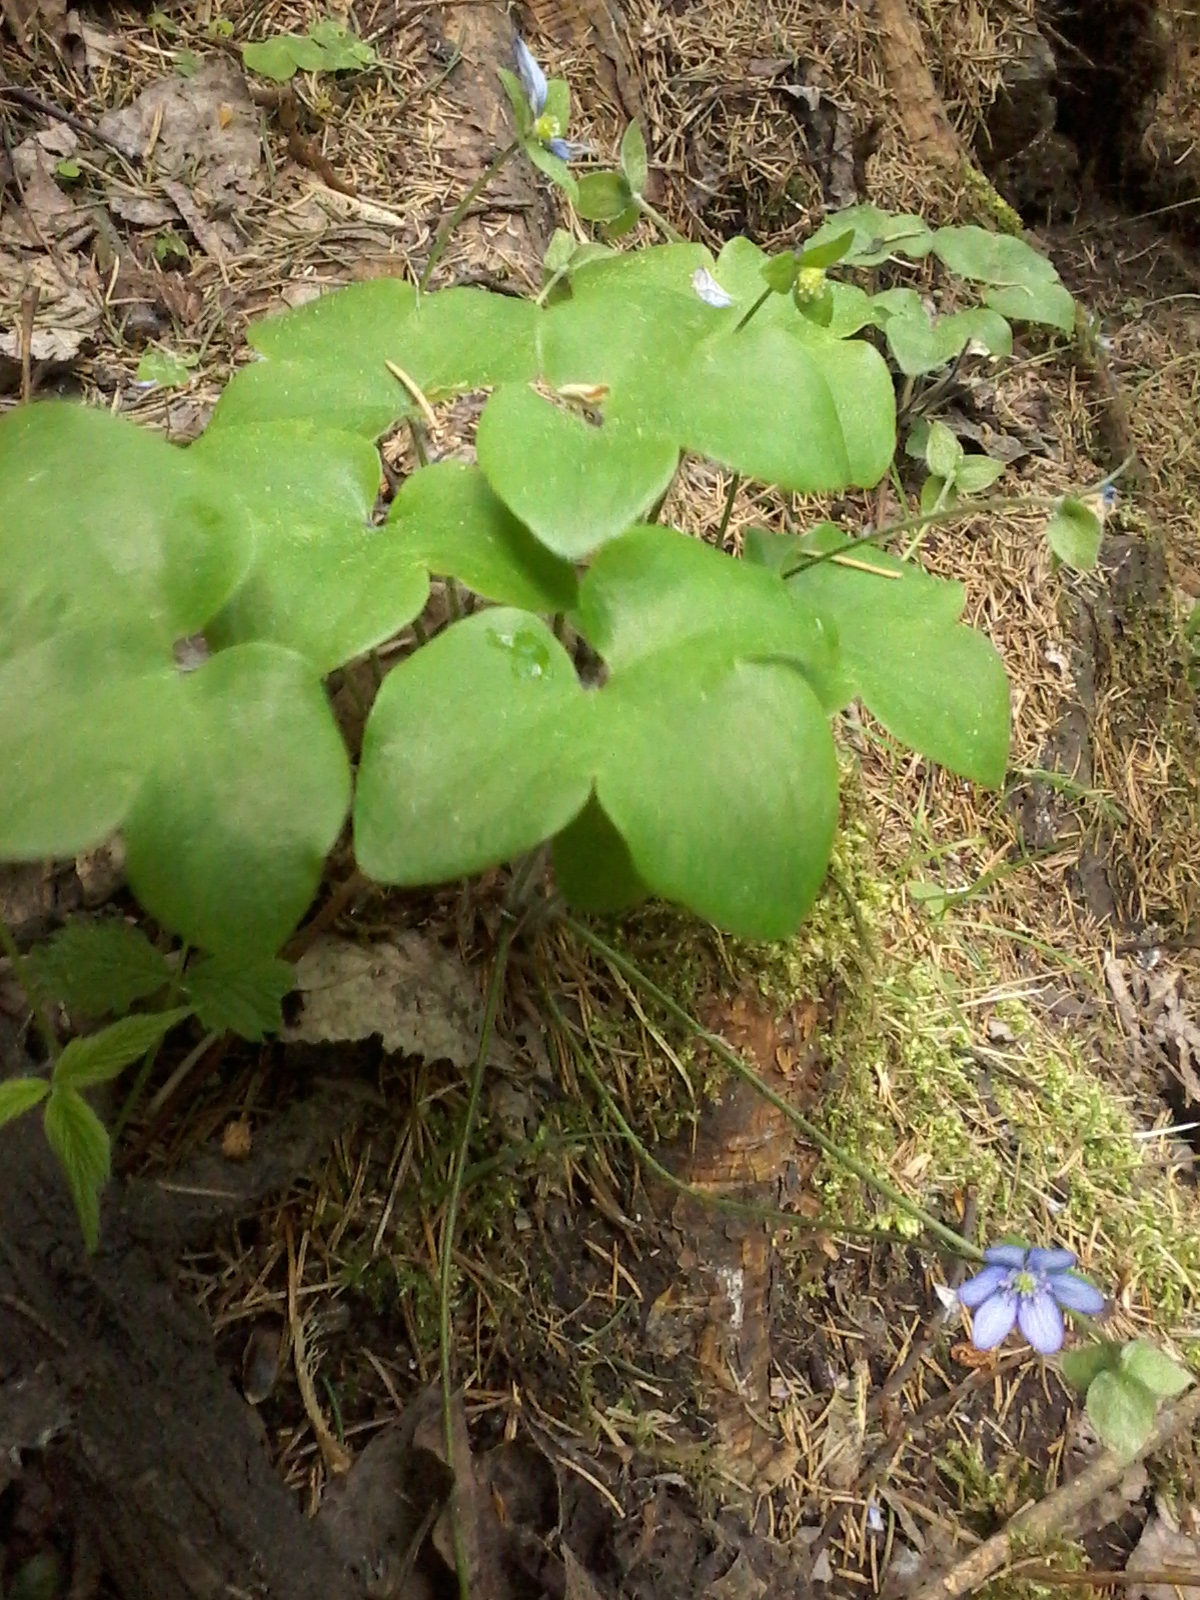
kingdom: Plantae
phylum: Tracheophyta
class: Magnoliopsida
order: Ranunculales
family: Ranunculaceae
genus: Hepatica
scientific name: Hepatica nobilis
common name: Liverleaf
